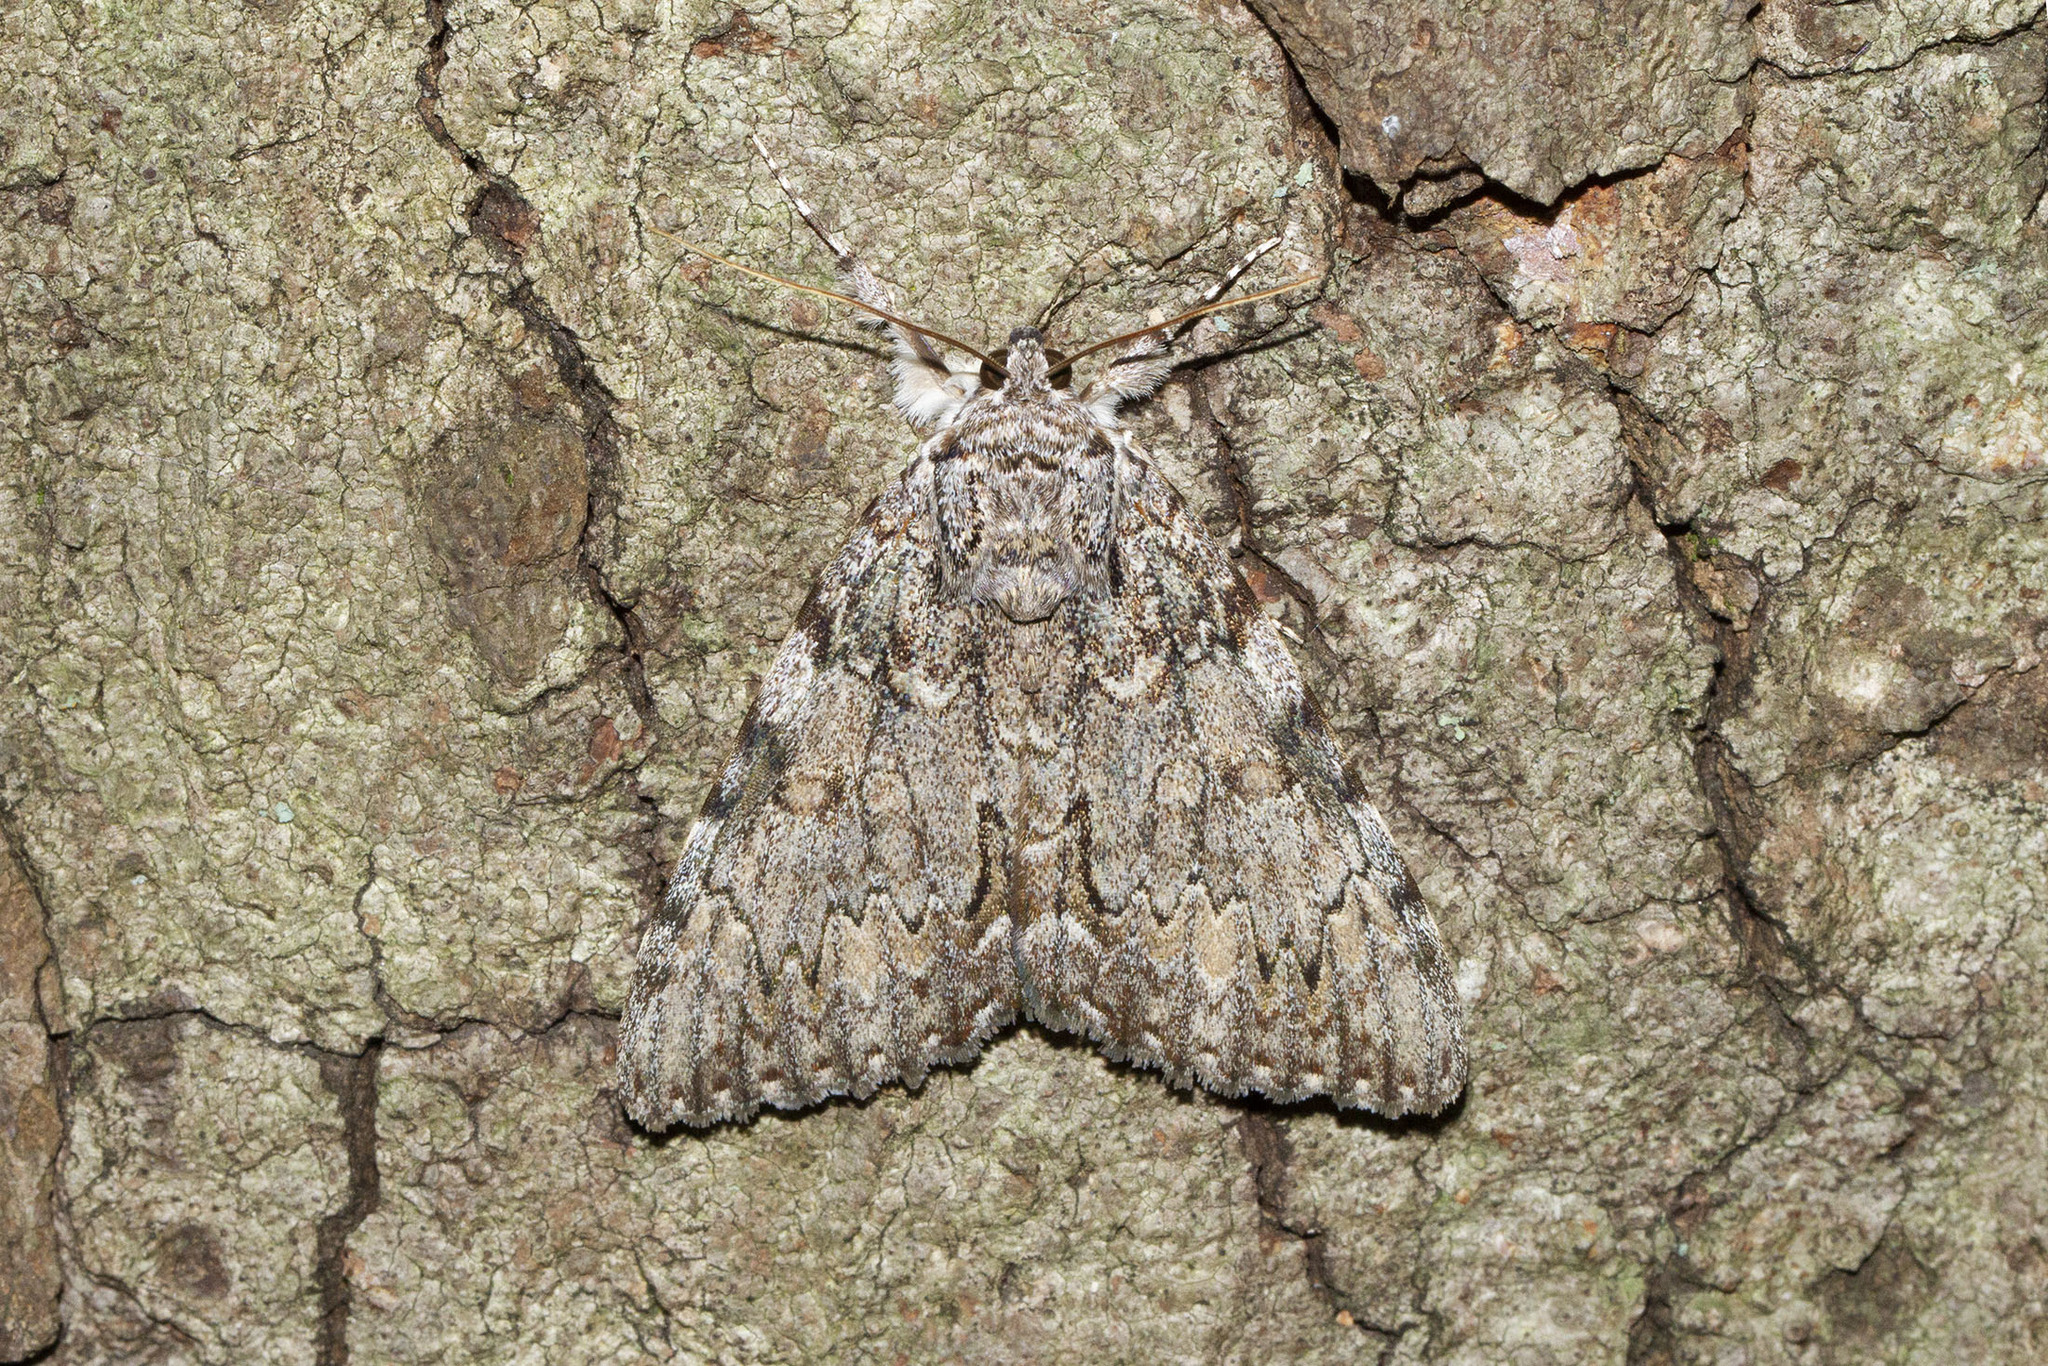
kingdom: Animalia
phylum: Arthropoda
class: Insecta
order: Lepidoptera
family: Erebidae
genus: Catocala
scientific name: Catocala palaeogama
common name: Oldwife underwing
